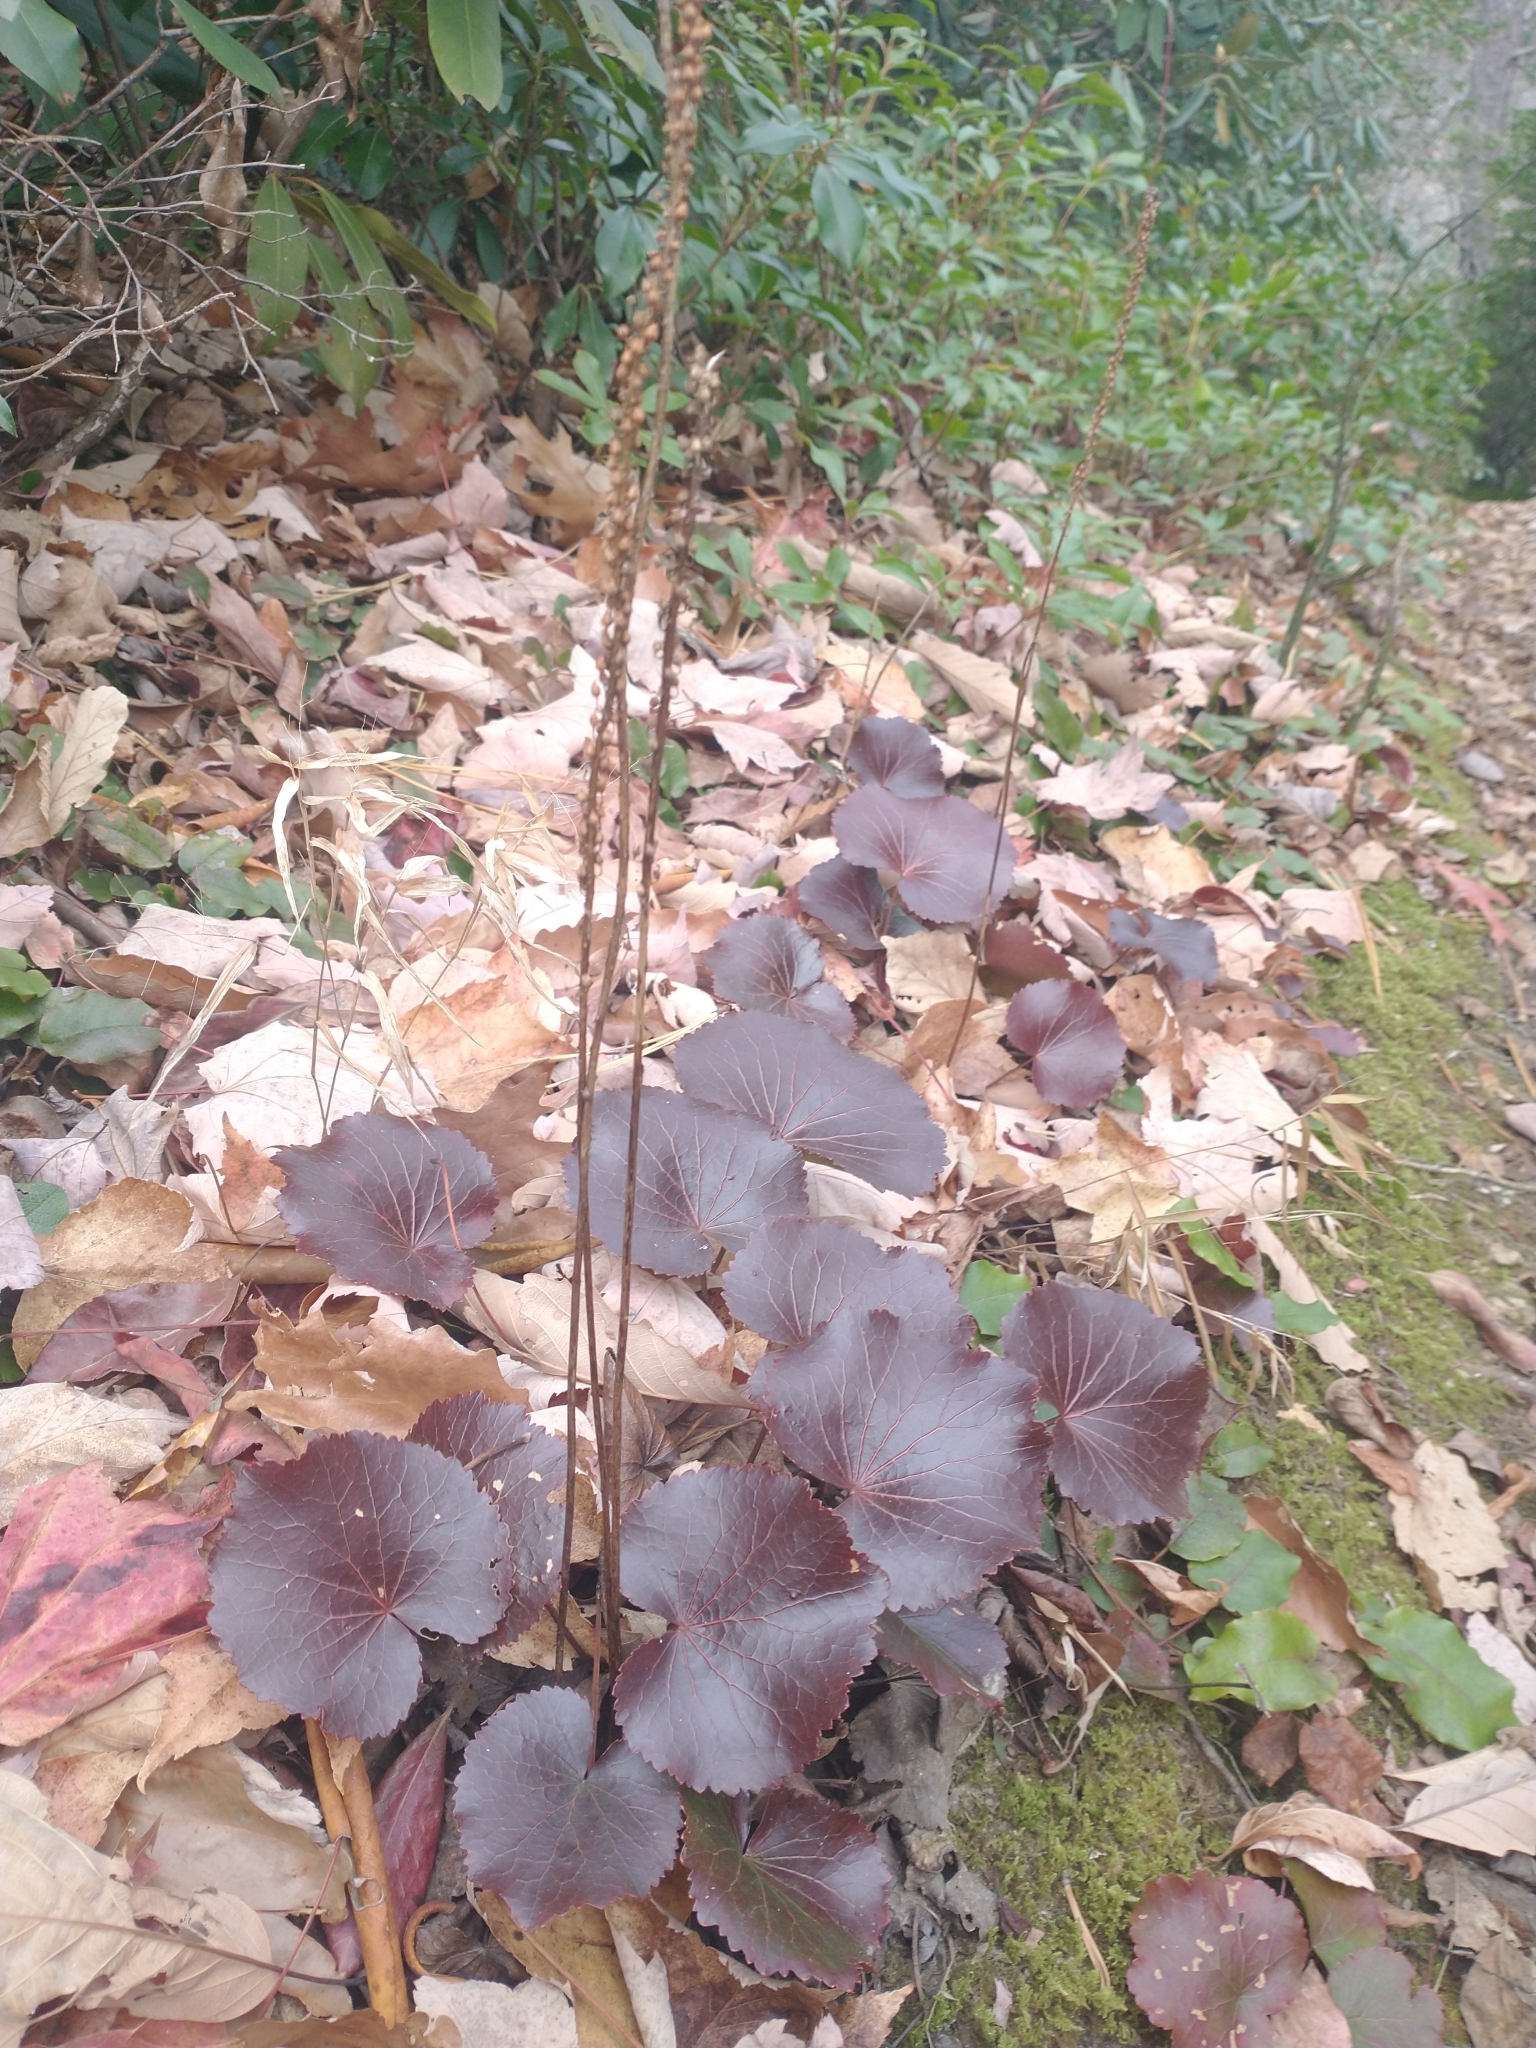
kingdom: Plantae
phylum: Tracheophyta
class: Magnoliopsida
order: Ericales
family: Diapensiaceae
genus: Galax
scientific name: Galax urceolata
